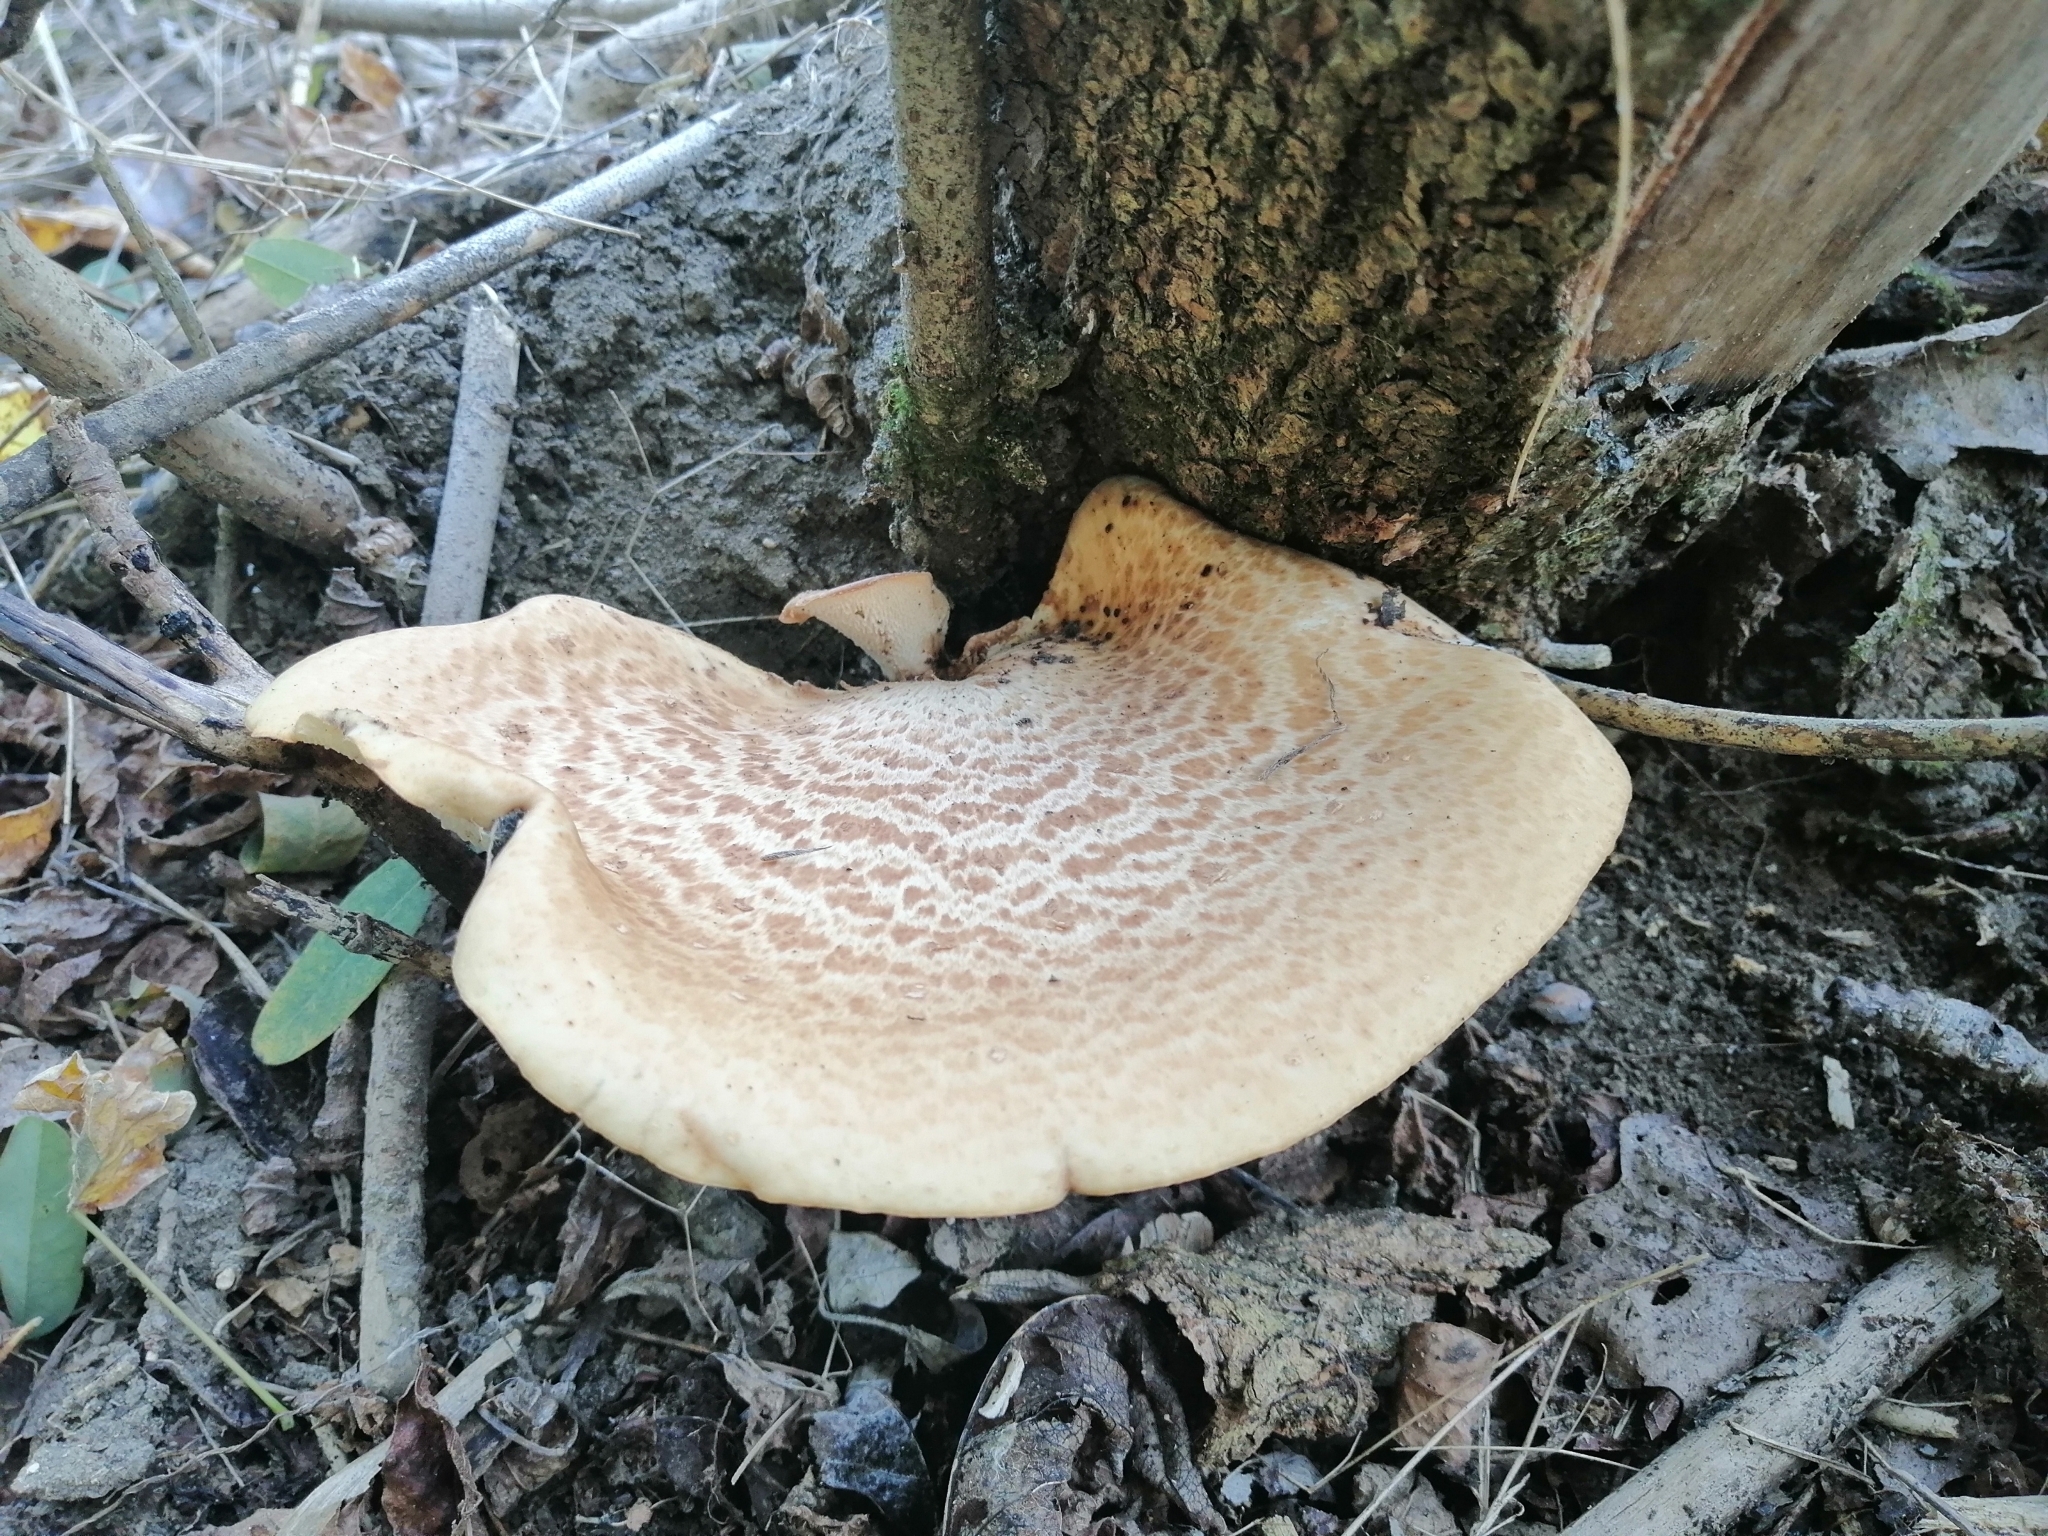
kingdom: Fungi
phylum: Basidiomycota
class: Agaricomycetes
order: Polyporales
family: Polyporaceae
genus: Cerioporus
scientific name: Cerioporus squamosus
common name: Dryad's saddle
